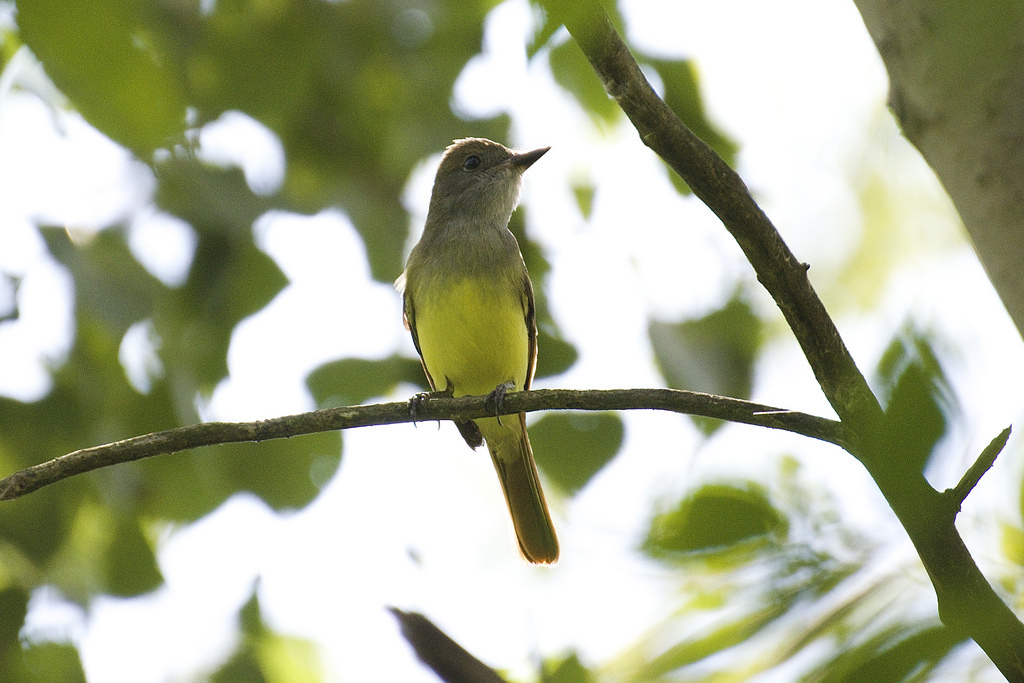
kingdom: Animalia
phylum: Chordata
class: Aves
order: Passeriformes
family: Tyrannidae
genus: Myiarchus
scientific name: Myiarchus crinitus
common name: Great crested flycatcher
